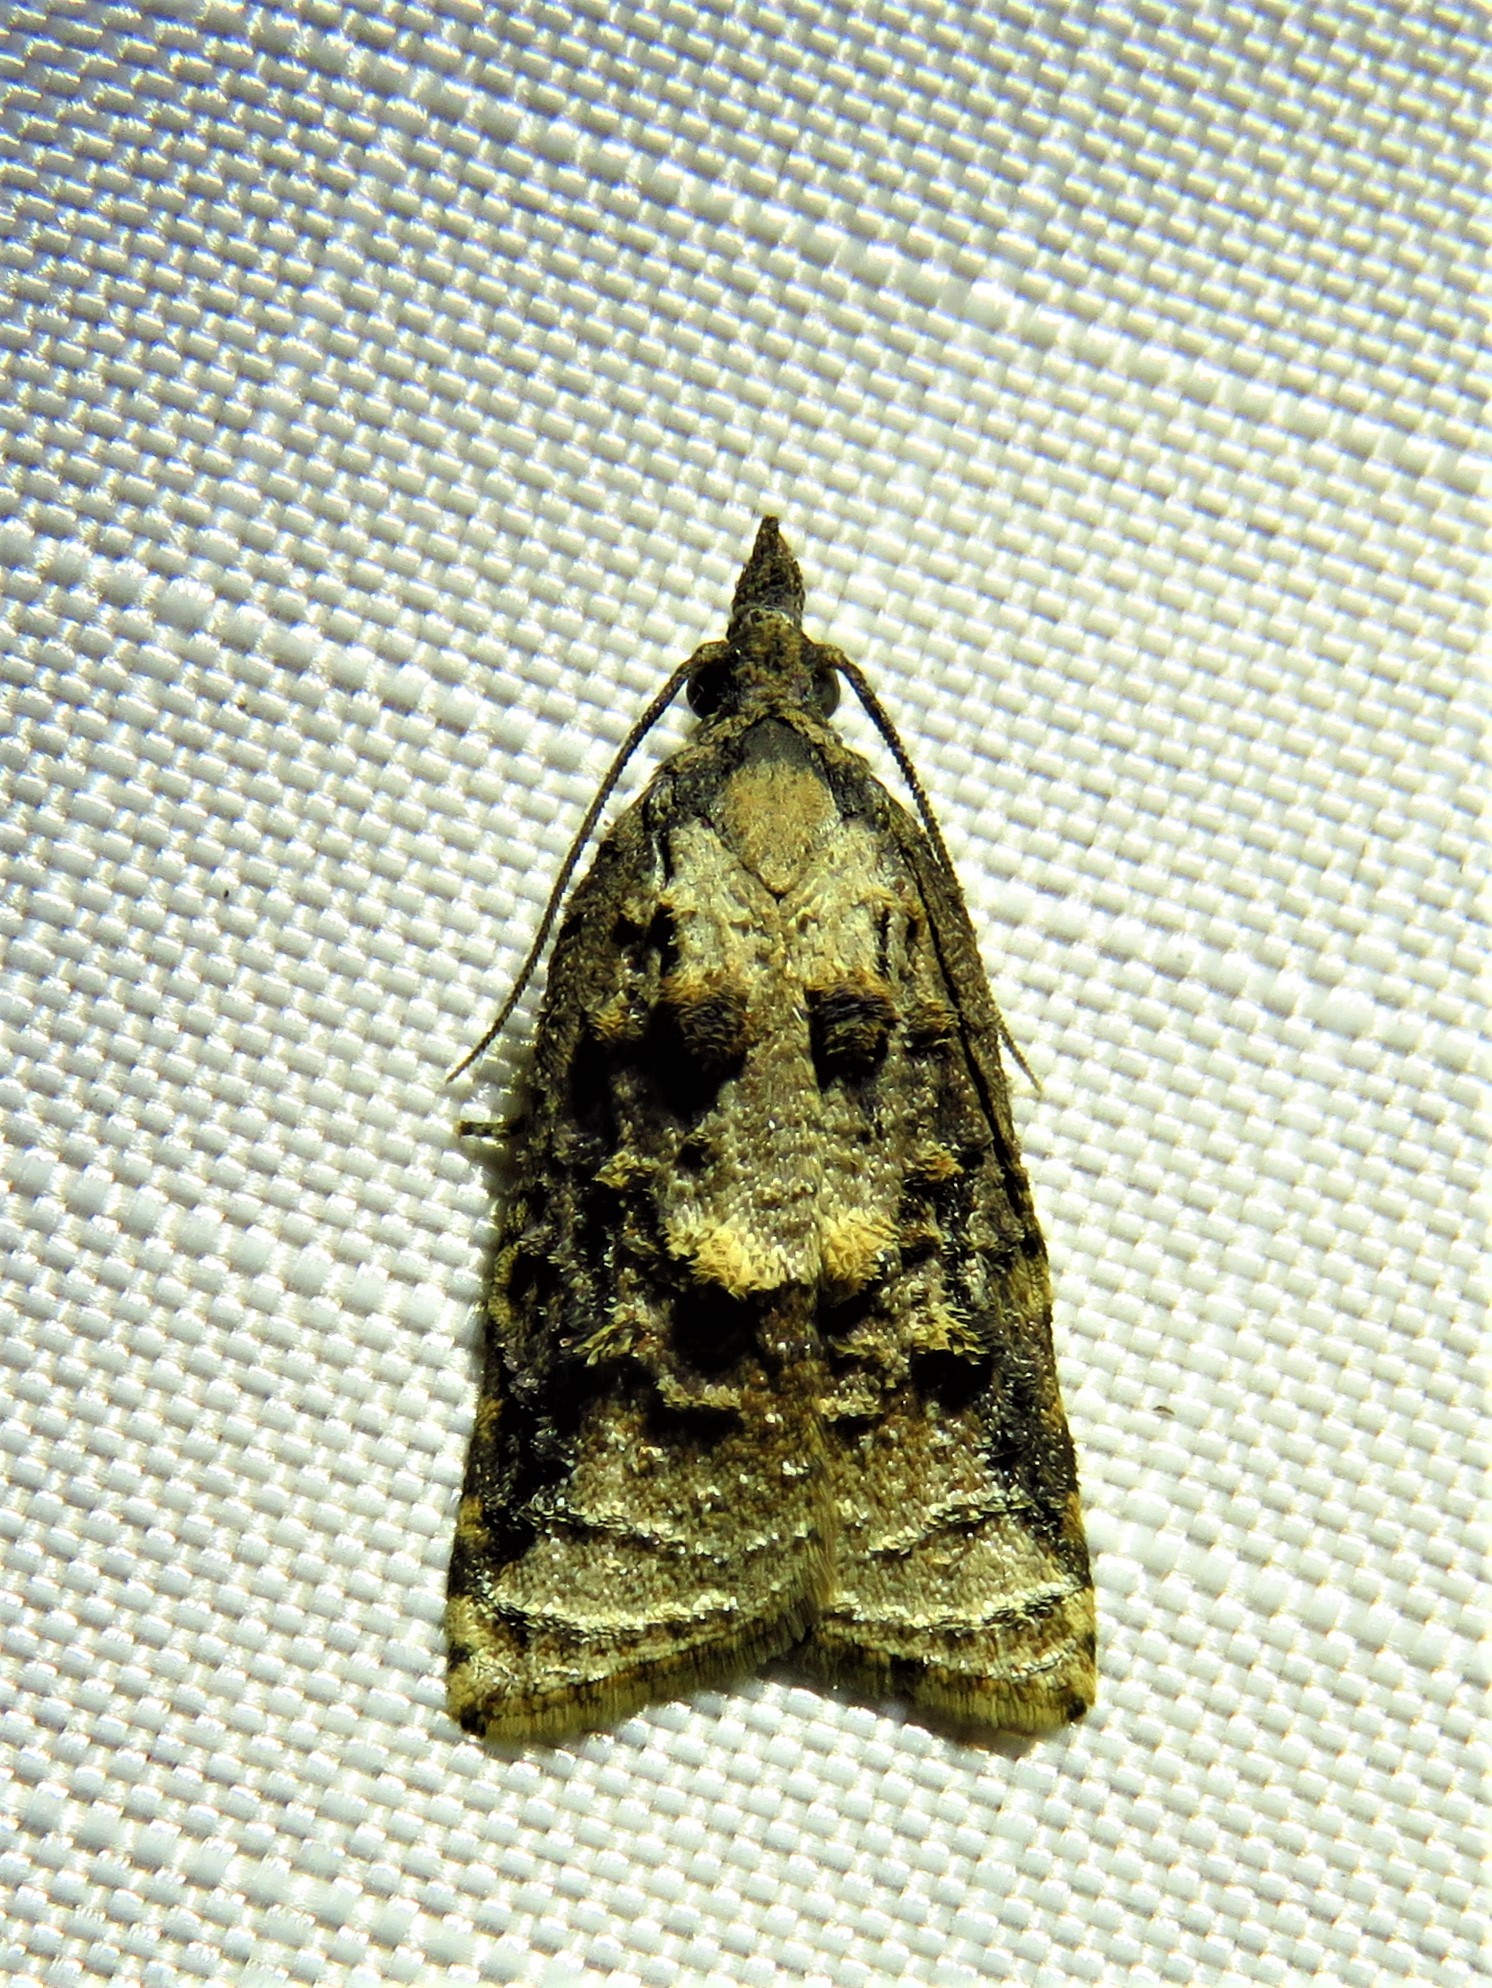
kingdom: Animalia
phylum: Arthropoda
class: Insecta
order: Lepidoptera
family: Tortricidae
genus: Platynota
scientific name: Platynota rostrana
